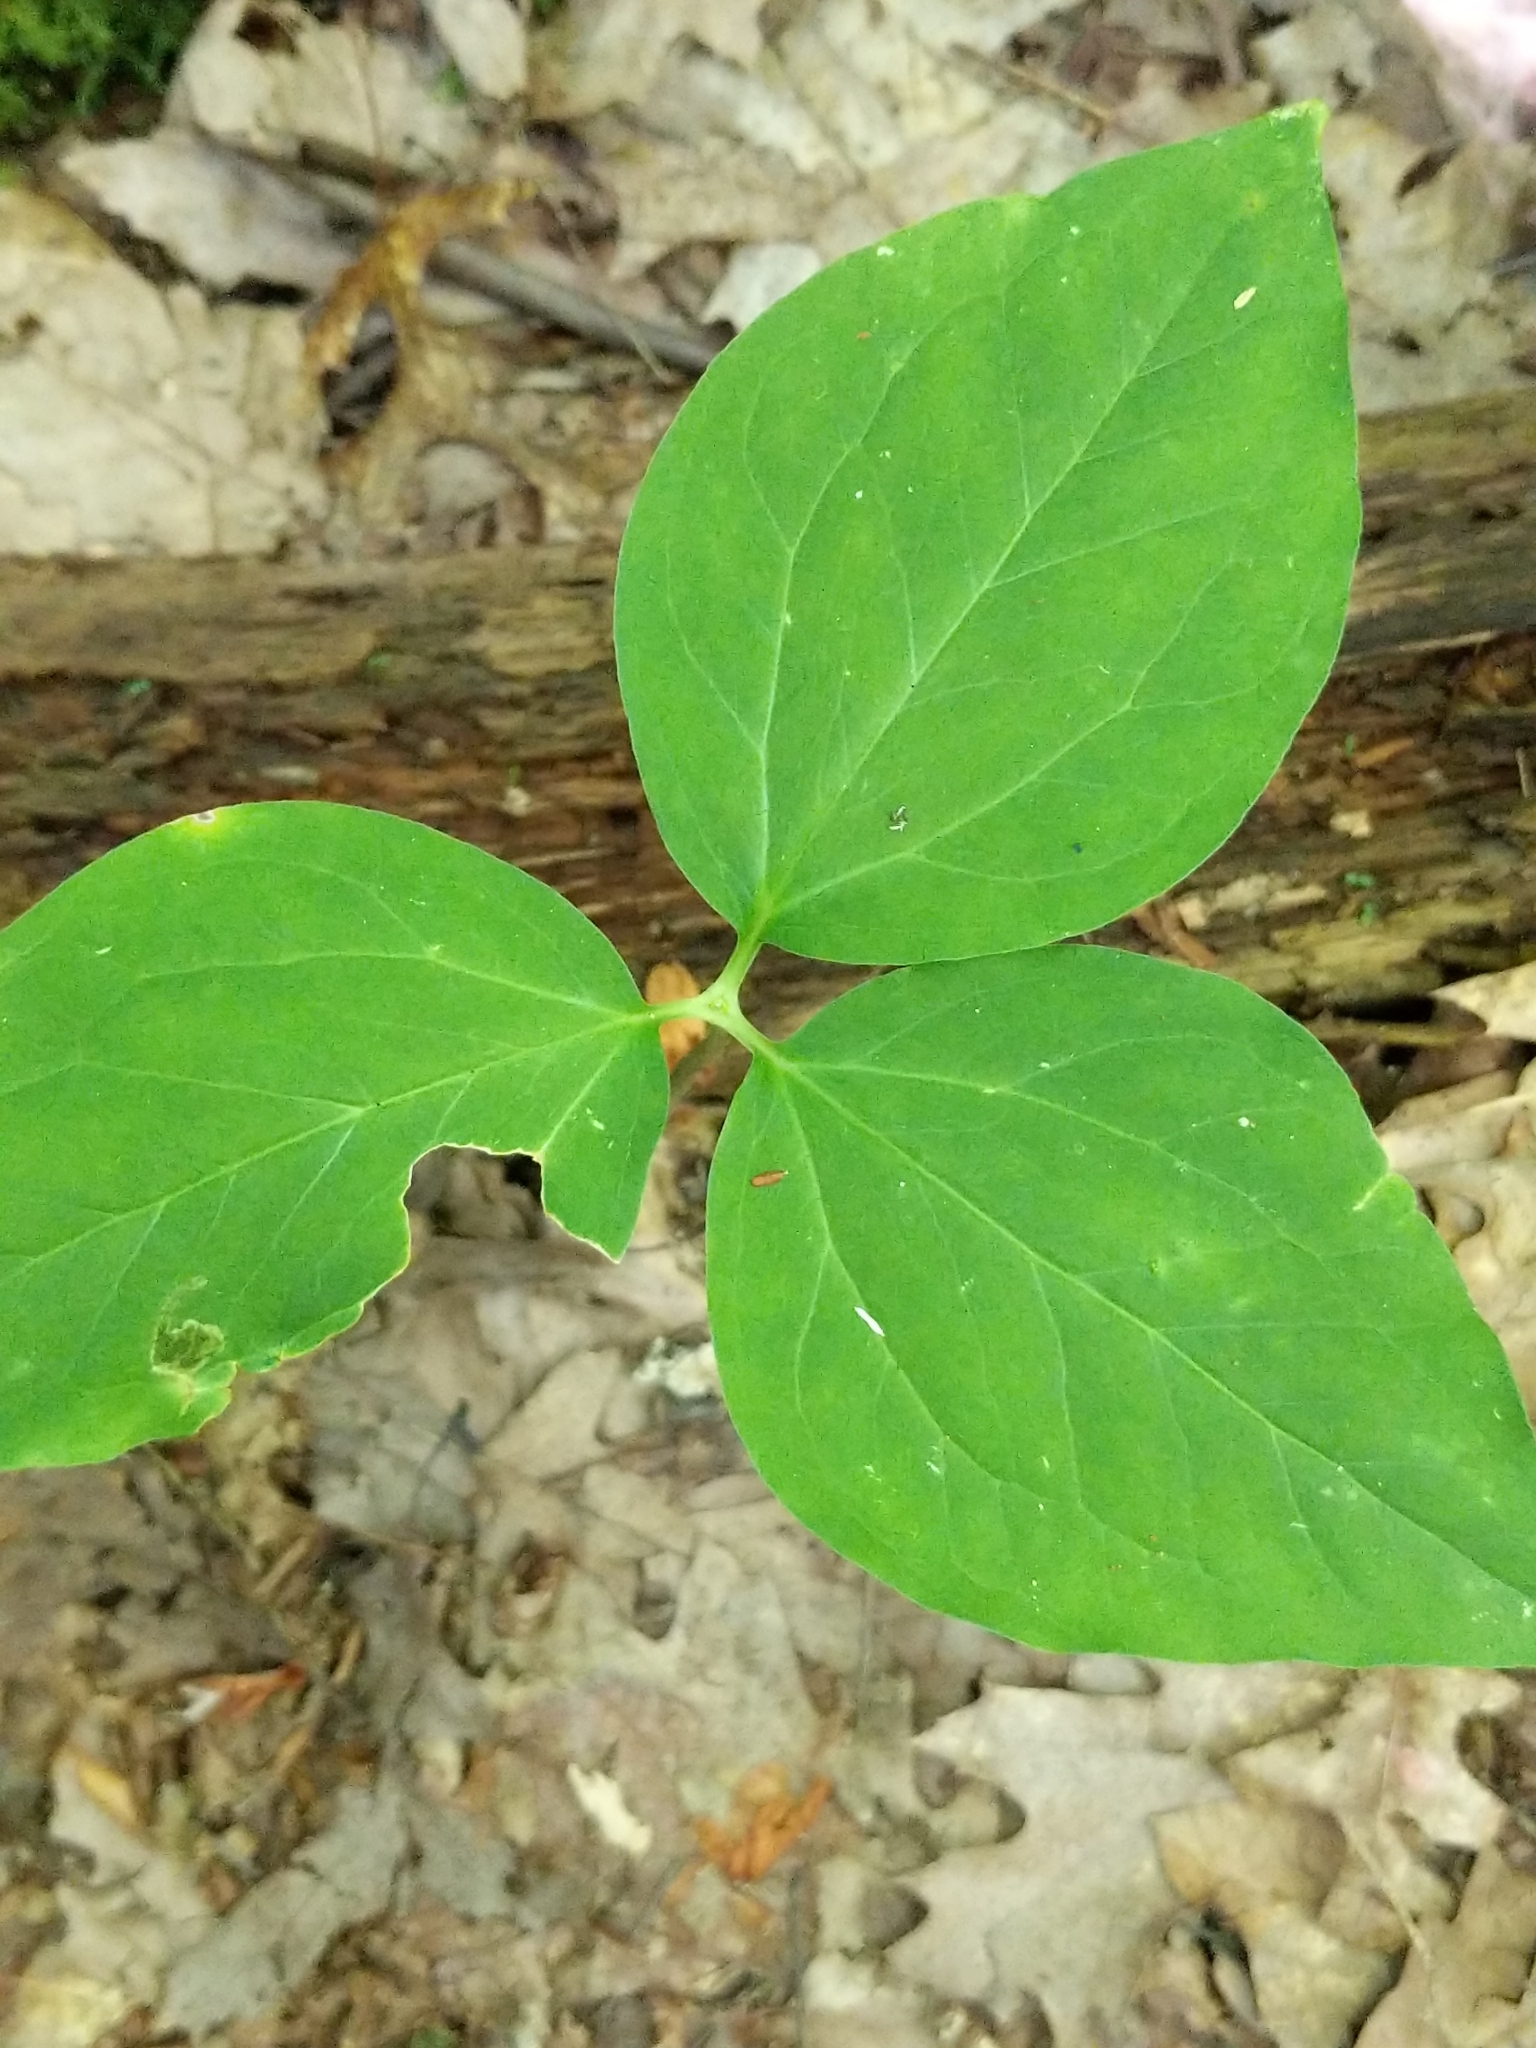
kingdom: Plantae
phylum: Tracheophyta
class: Liliopsida
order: Liliales
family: Melanthiaceae
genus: Trillium
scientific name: Trillium undulatum
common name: Paint trillium
